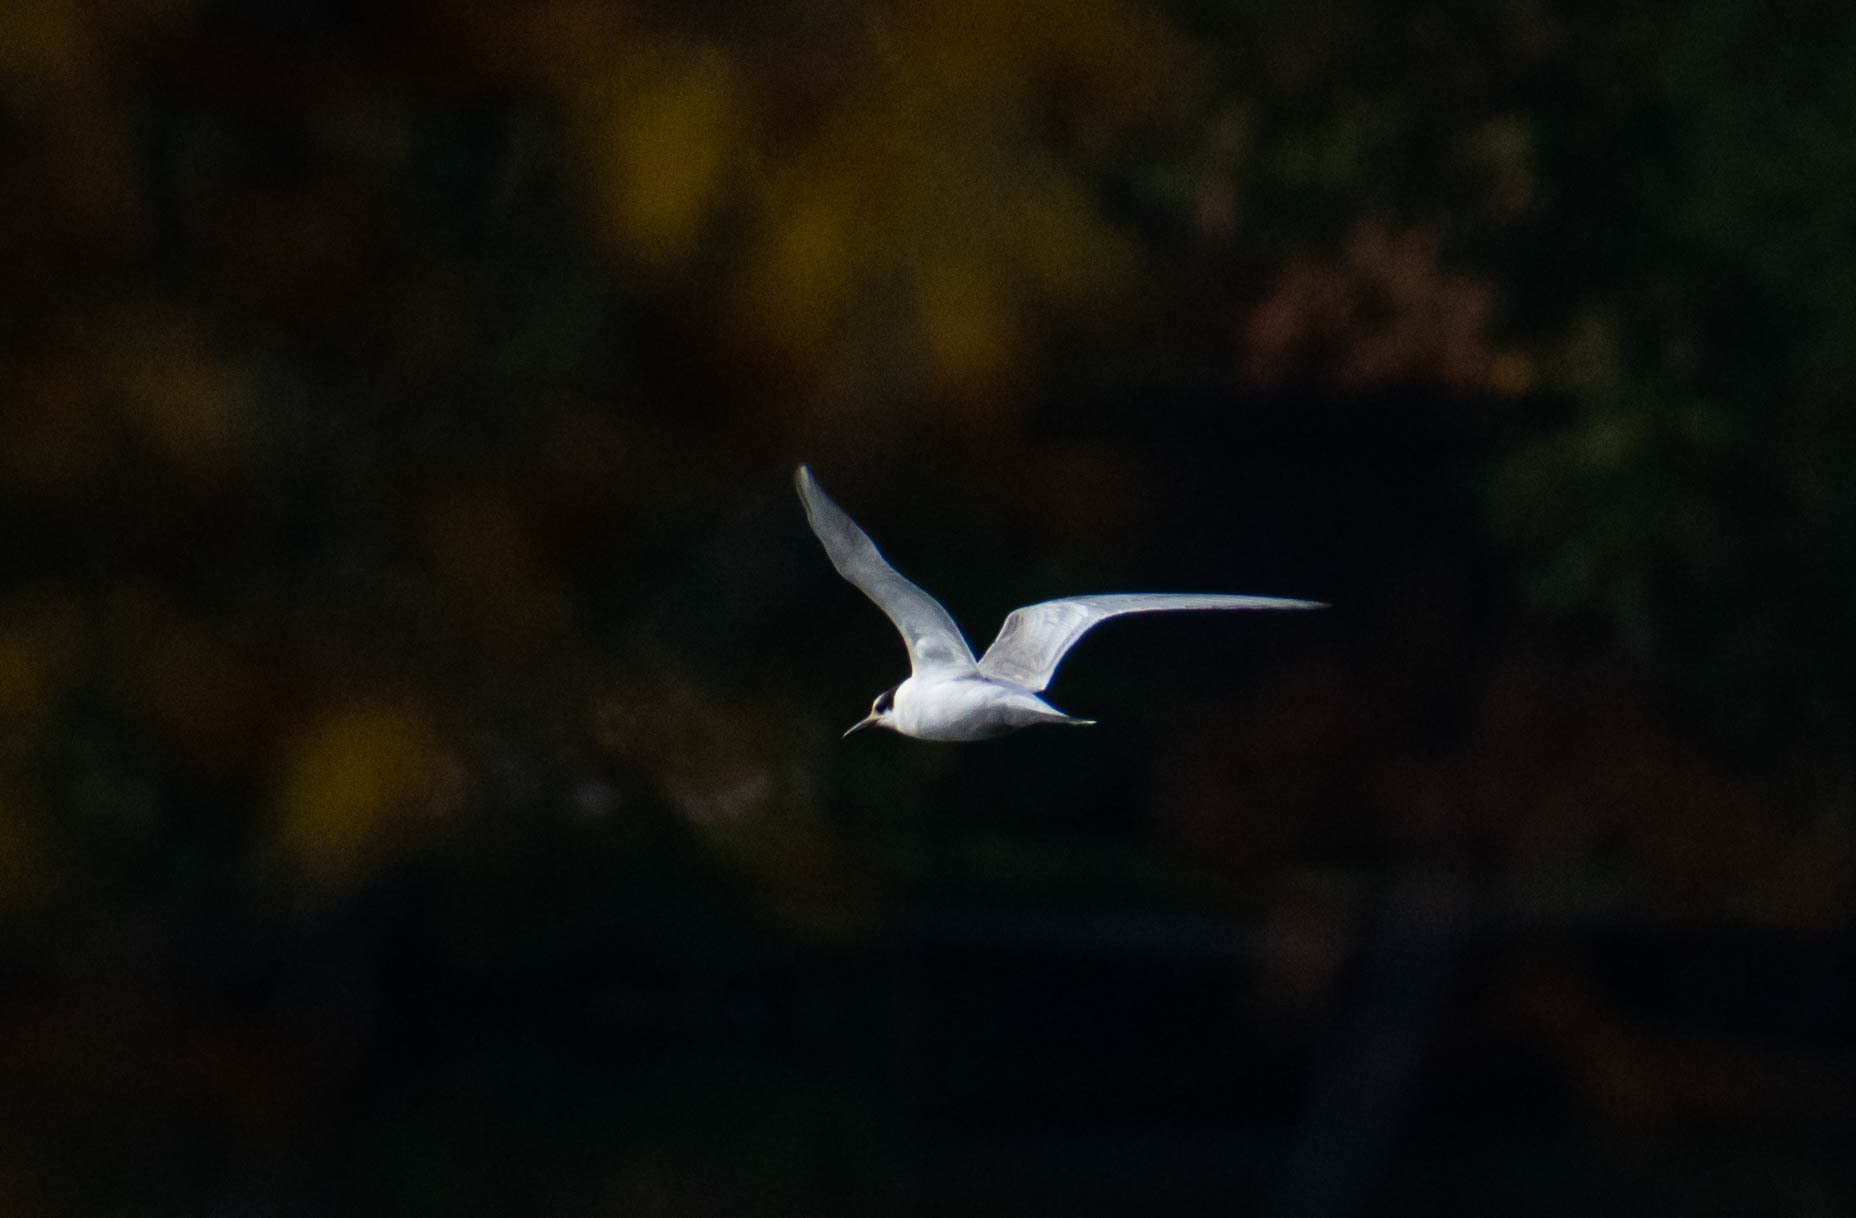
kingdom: Animalia
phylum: Chordata
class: Aves
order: Charadriiformes
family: Laridae
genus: Sterna
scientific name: Sterna hirundo
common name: Common tern
